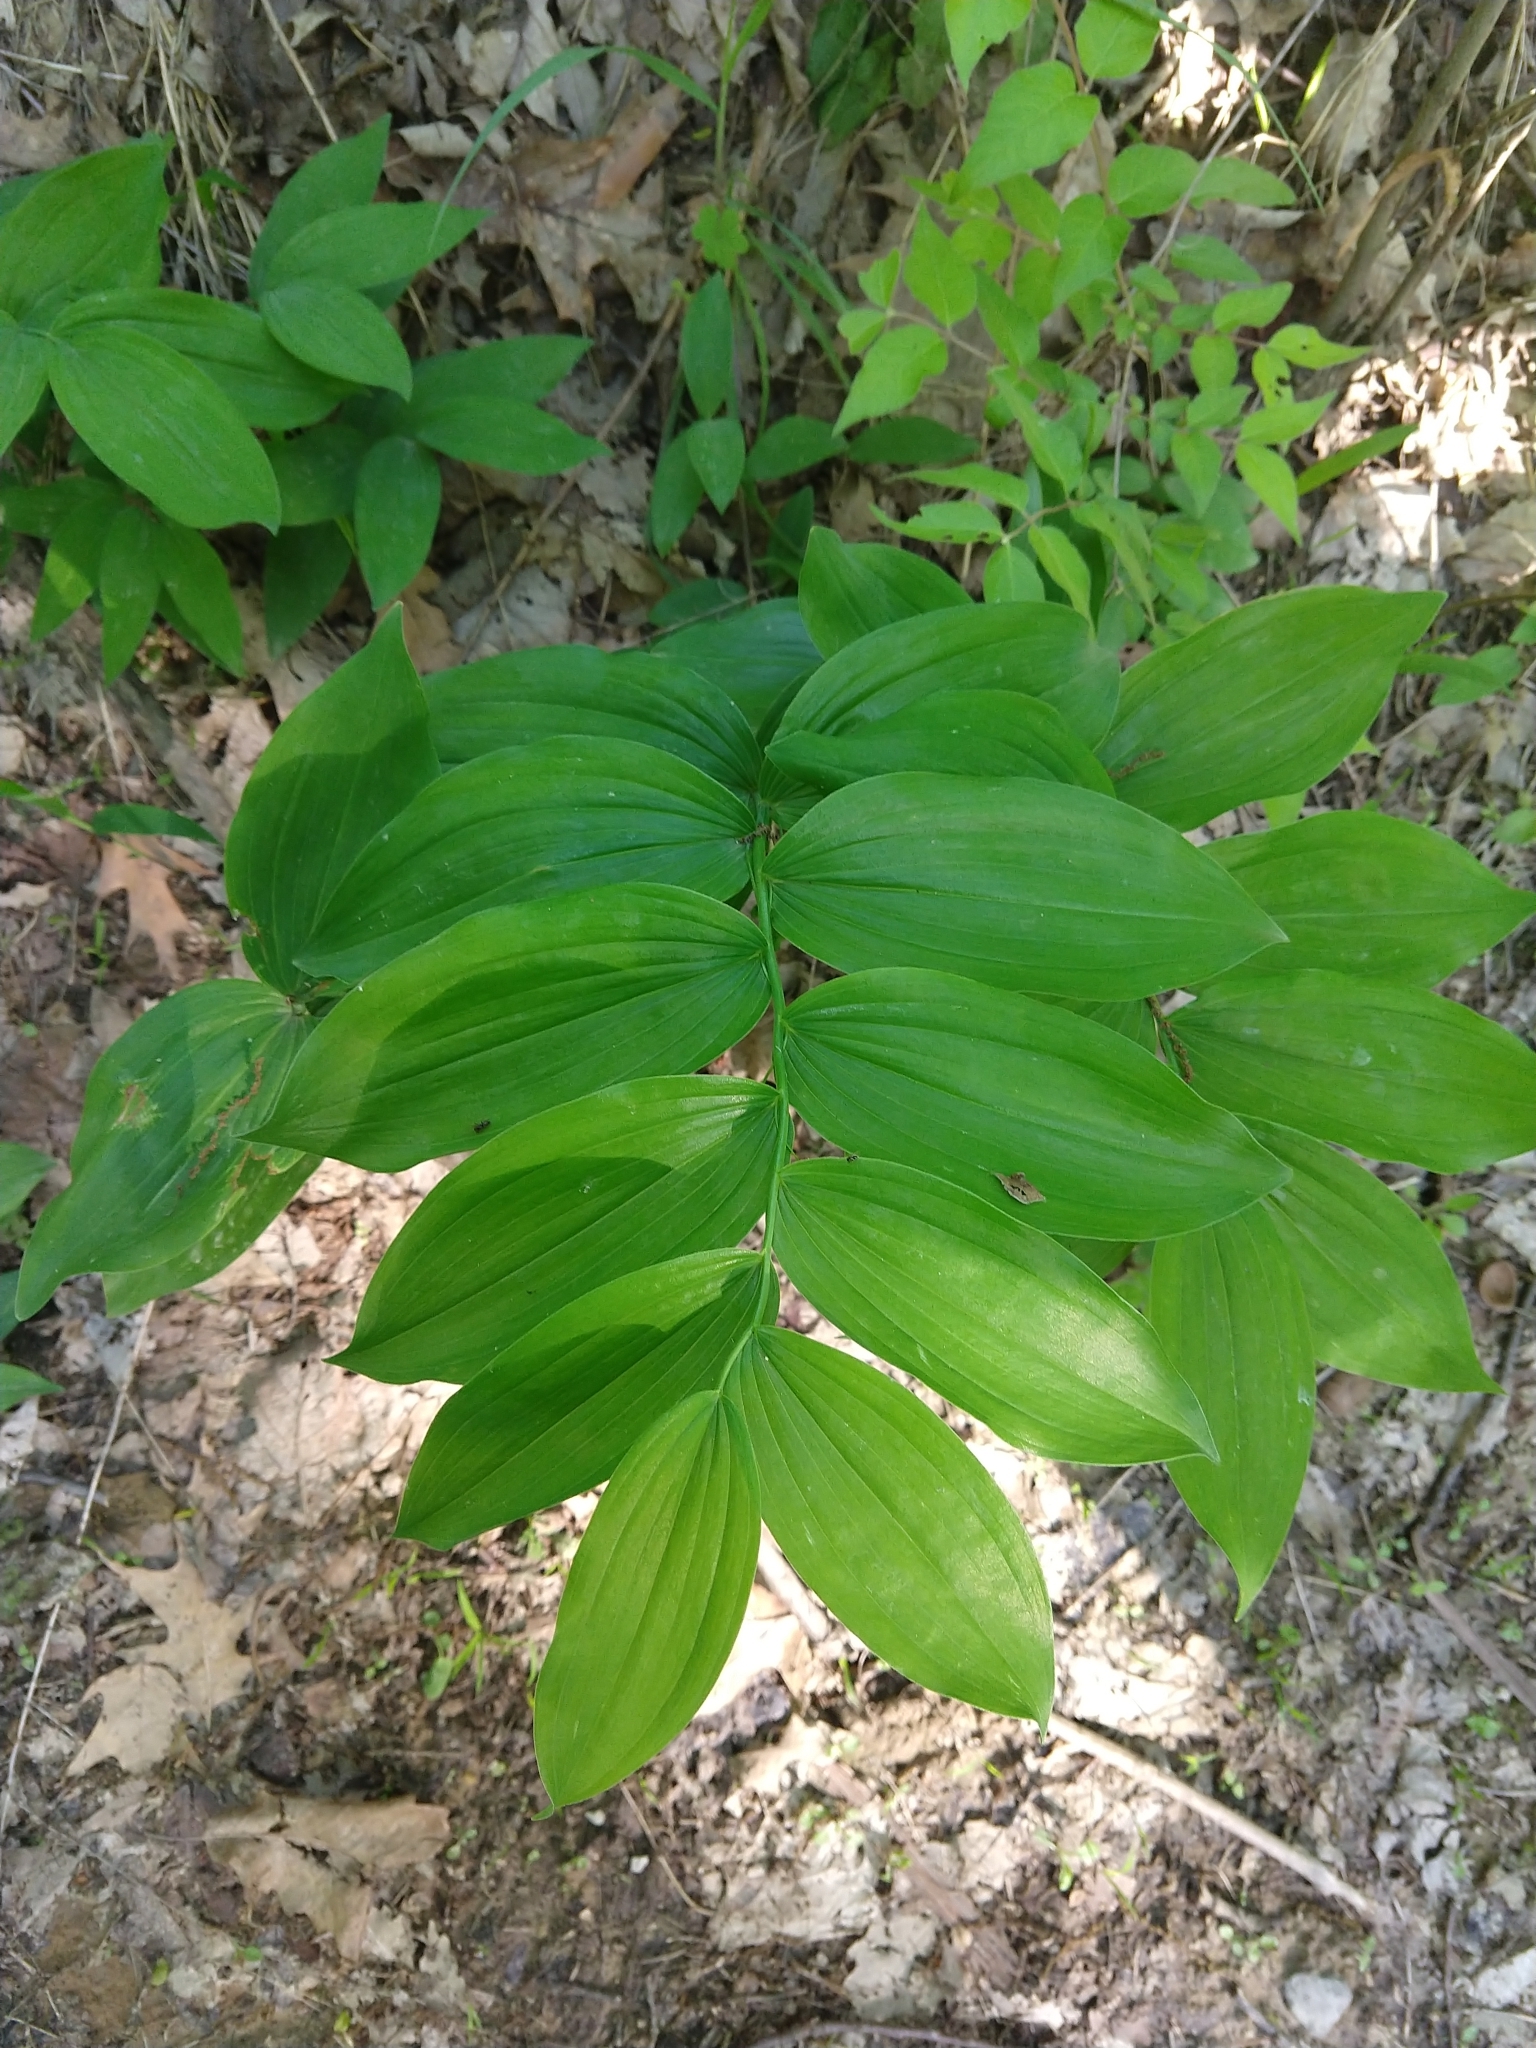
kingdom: Plantae
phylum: Tracheophyta
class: Liliopsida
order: Asparagales
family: Asparagaceae
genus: Polygonatum
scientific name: Polygonatum biflorum
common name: American solomon's-seal
